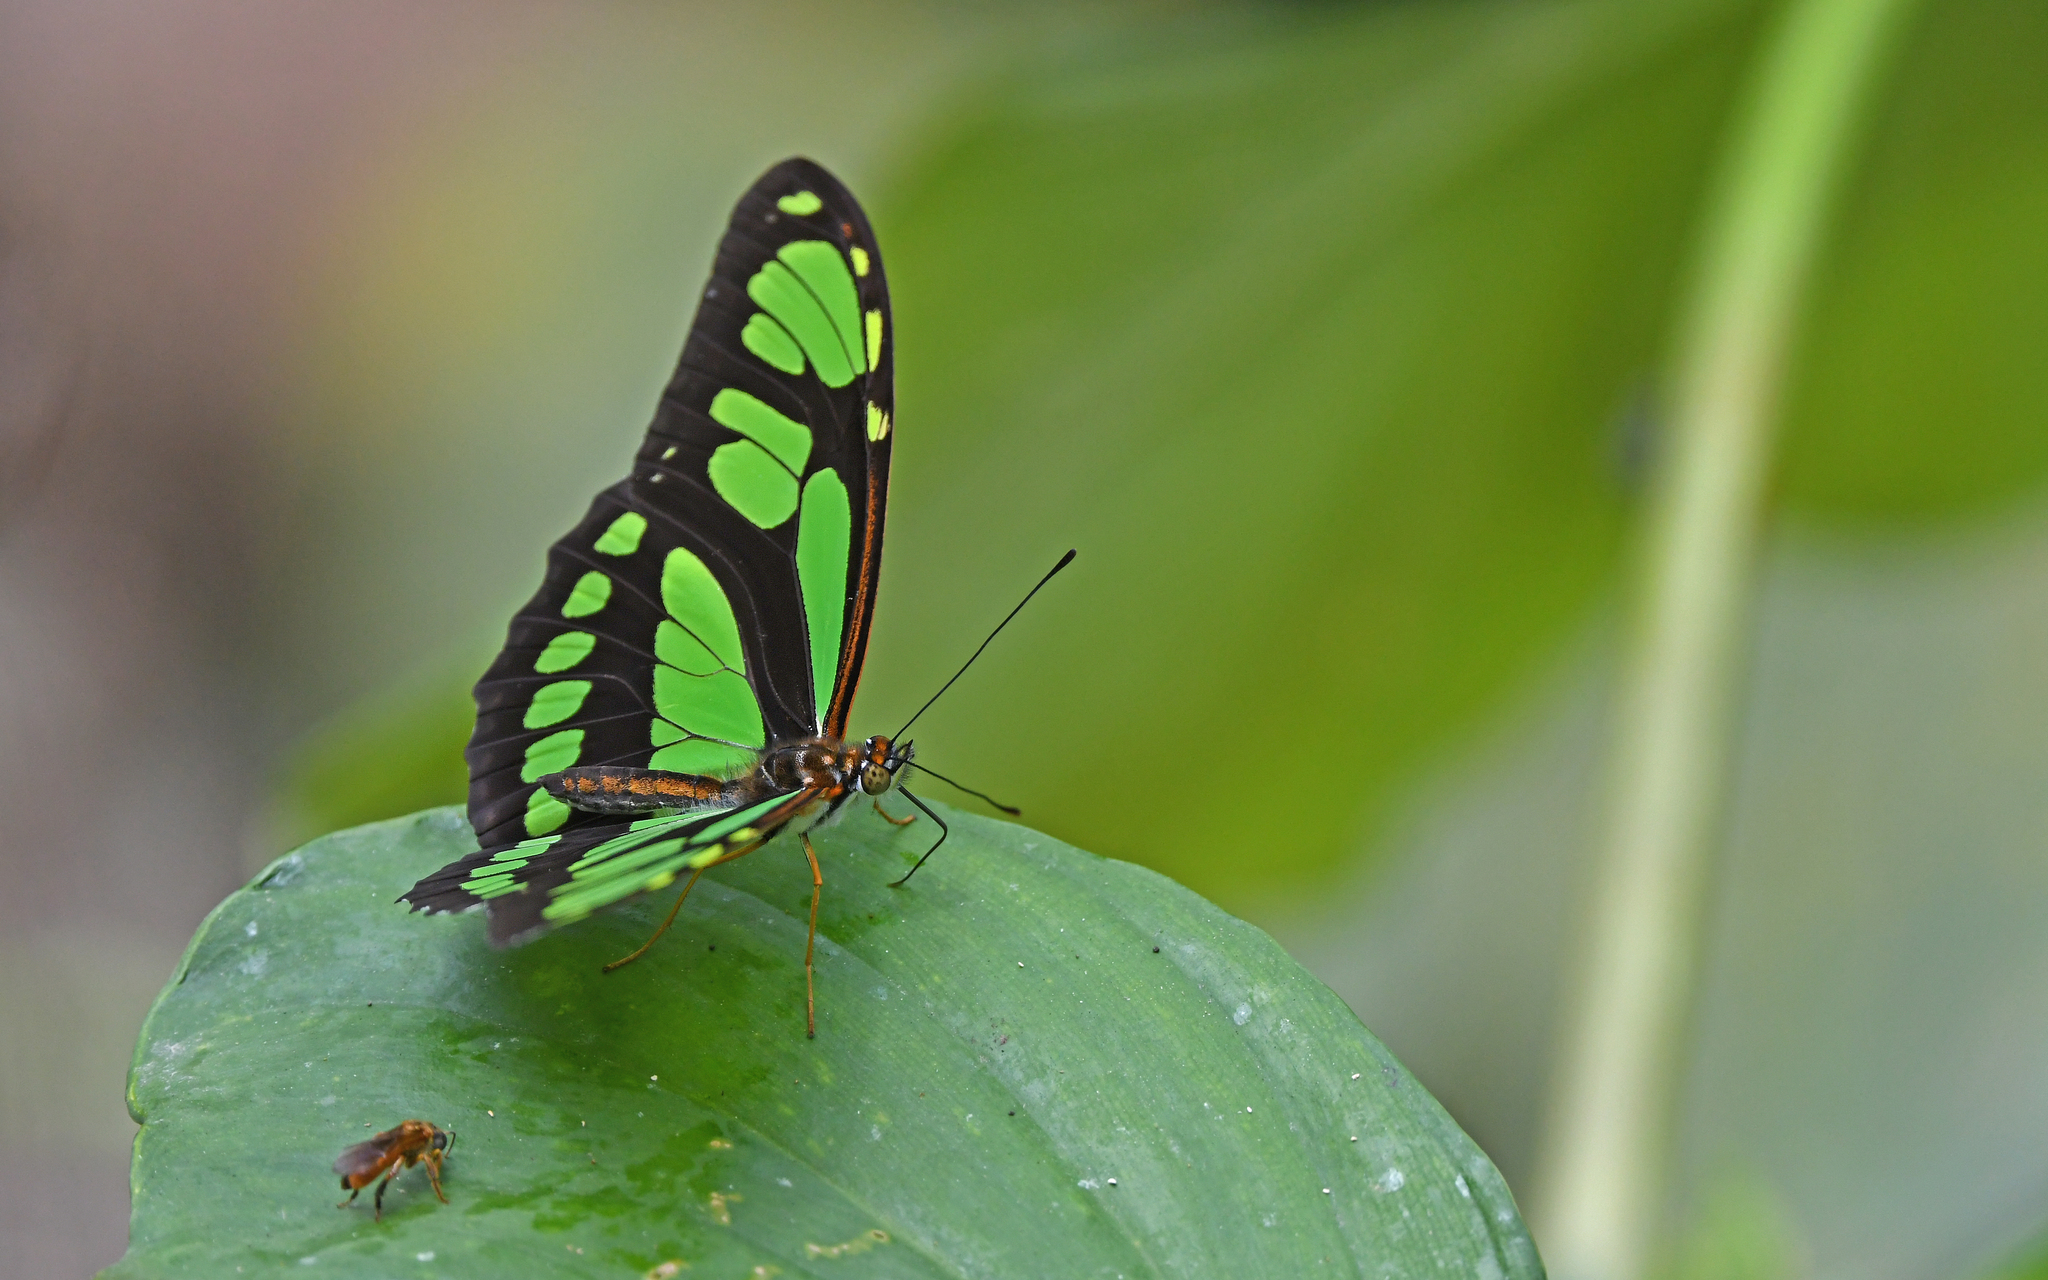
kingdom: Animalia
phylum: Arthropoda
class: Insecta
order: Lepidoptera
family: Nymphalidae
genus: Philaethria
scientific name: Philaethria ostara
